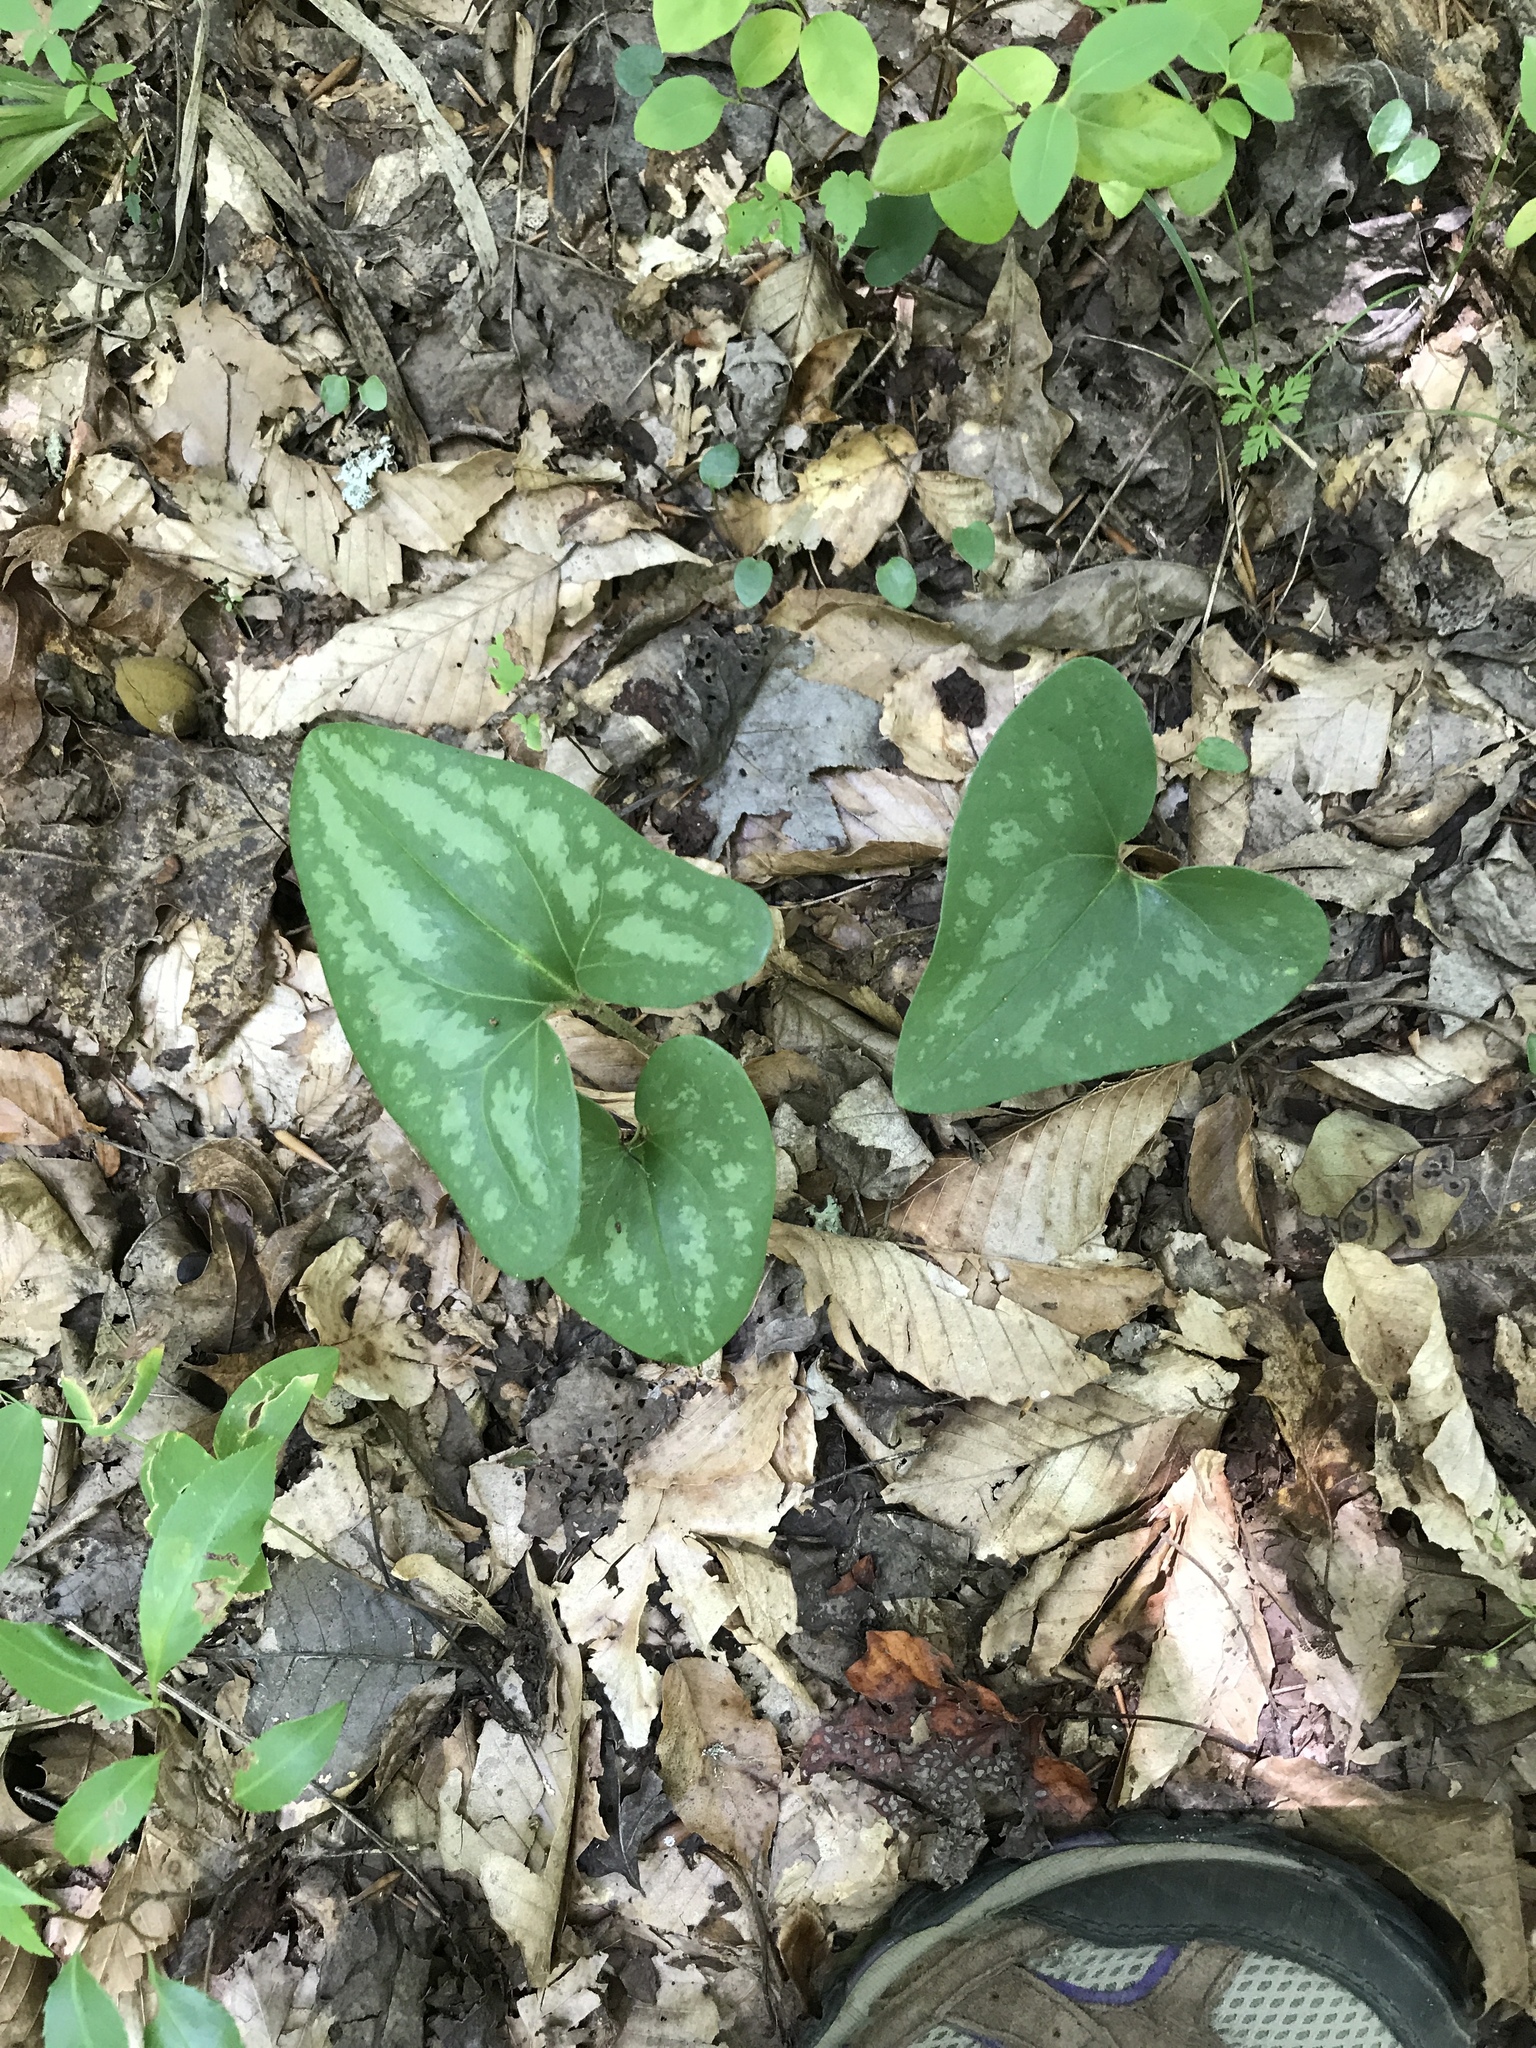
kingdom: Plantae
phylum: Tracheophyta
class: Magnoliopsida
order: Piperales
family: Aristolochiaceae
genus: Hexastylis
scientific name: Hexastylis arifolia
